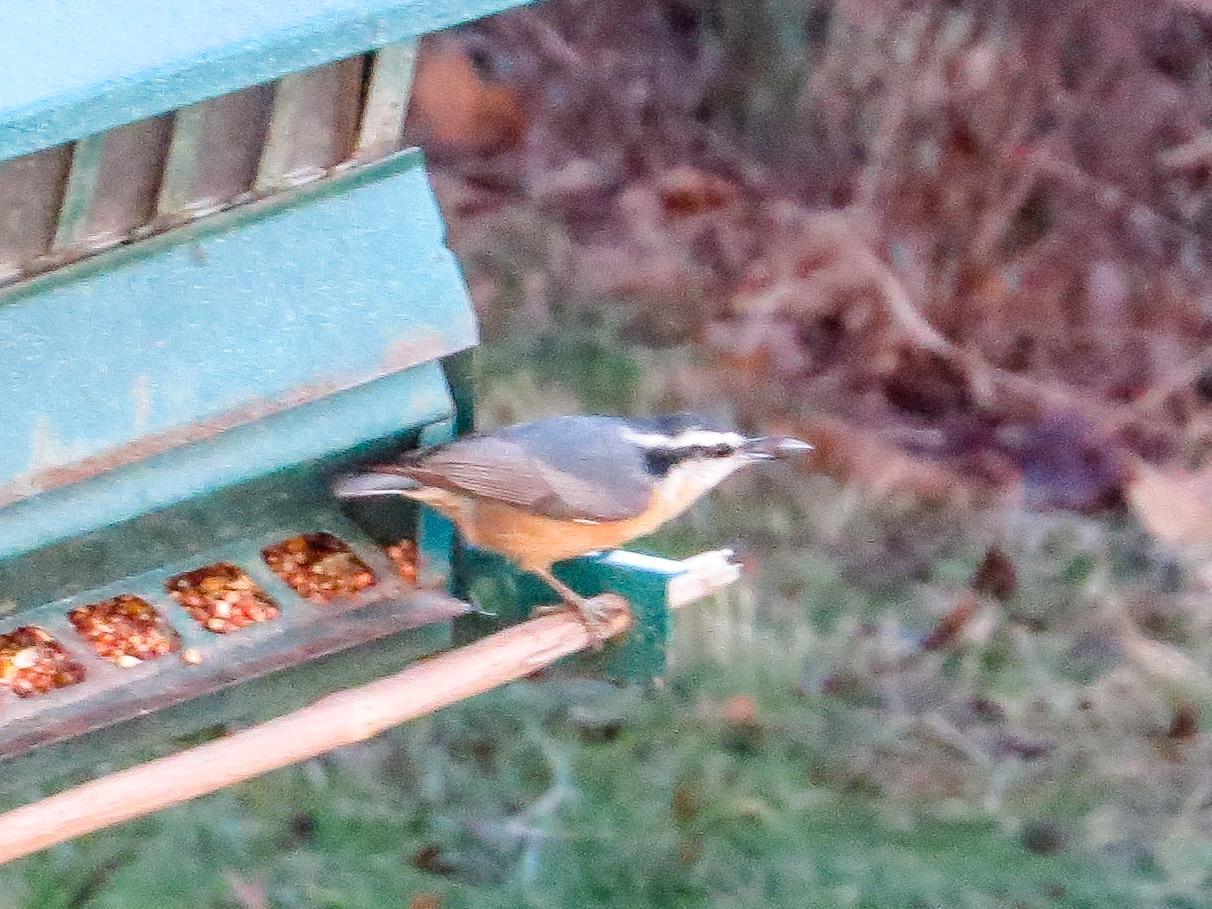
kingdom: Animalia
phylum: Chordata
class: Aves
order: Passeriformes
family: Sittidae
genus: Sitta
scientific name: Sitta canadensis
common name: Red-breasted nuthatch
